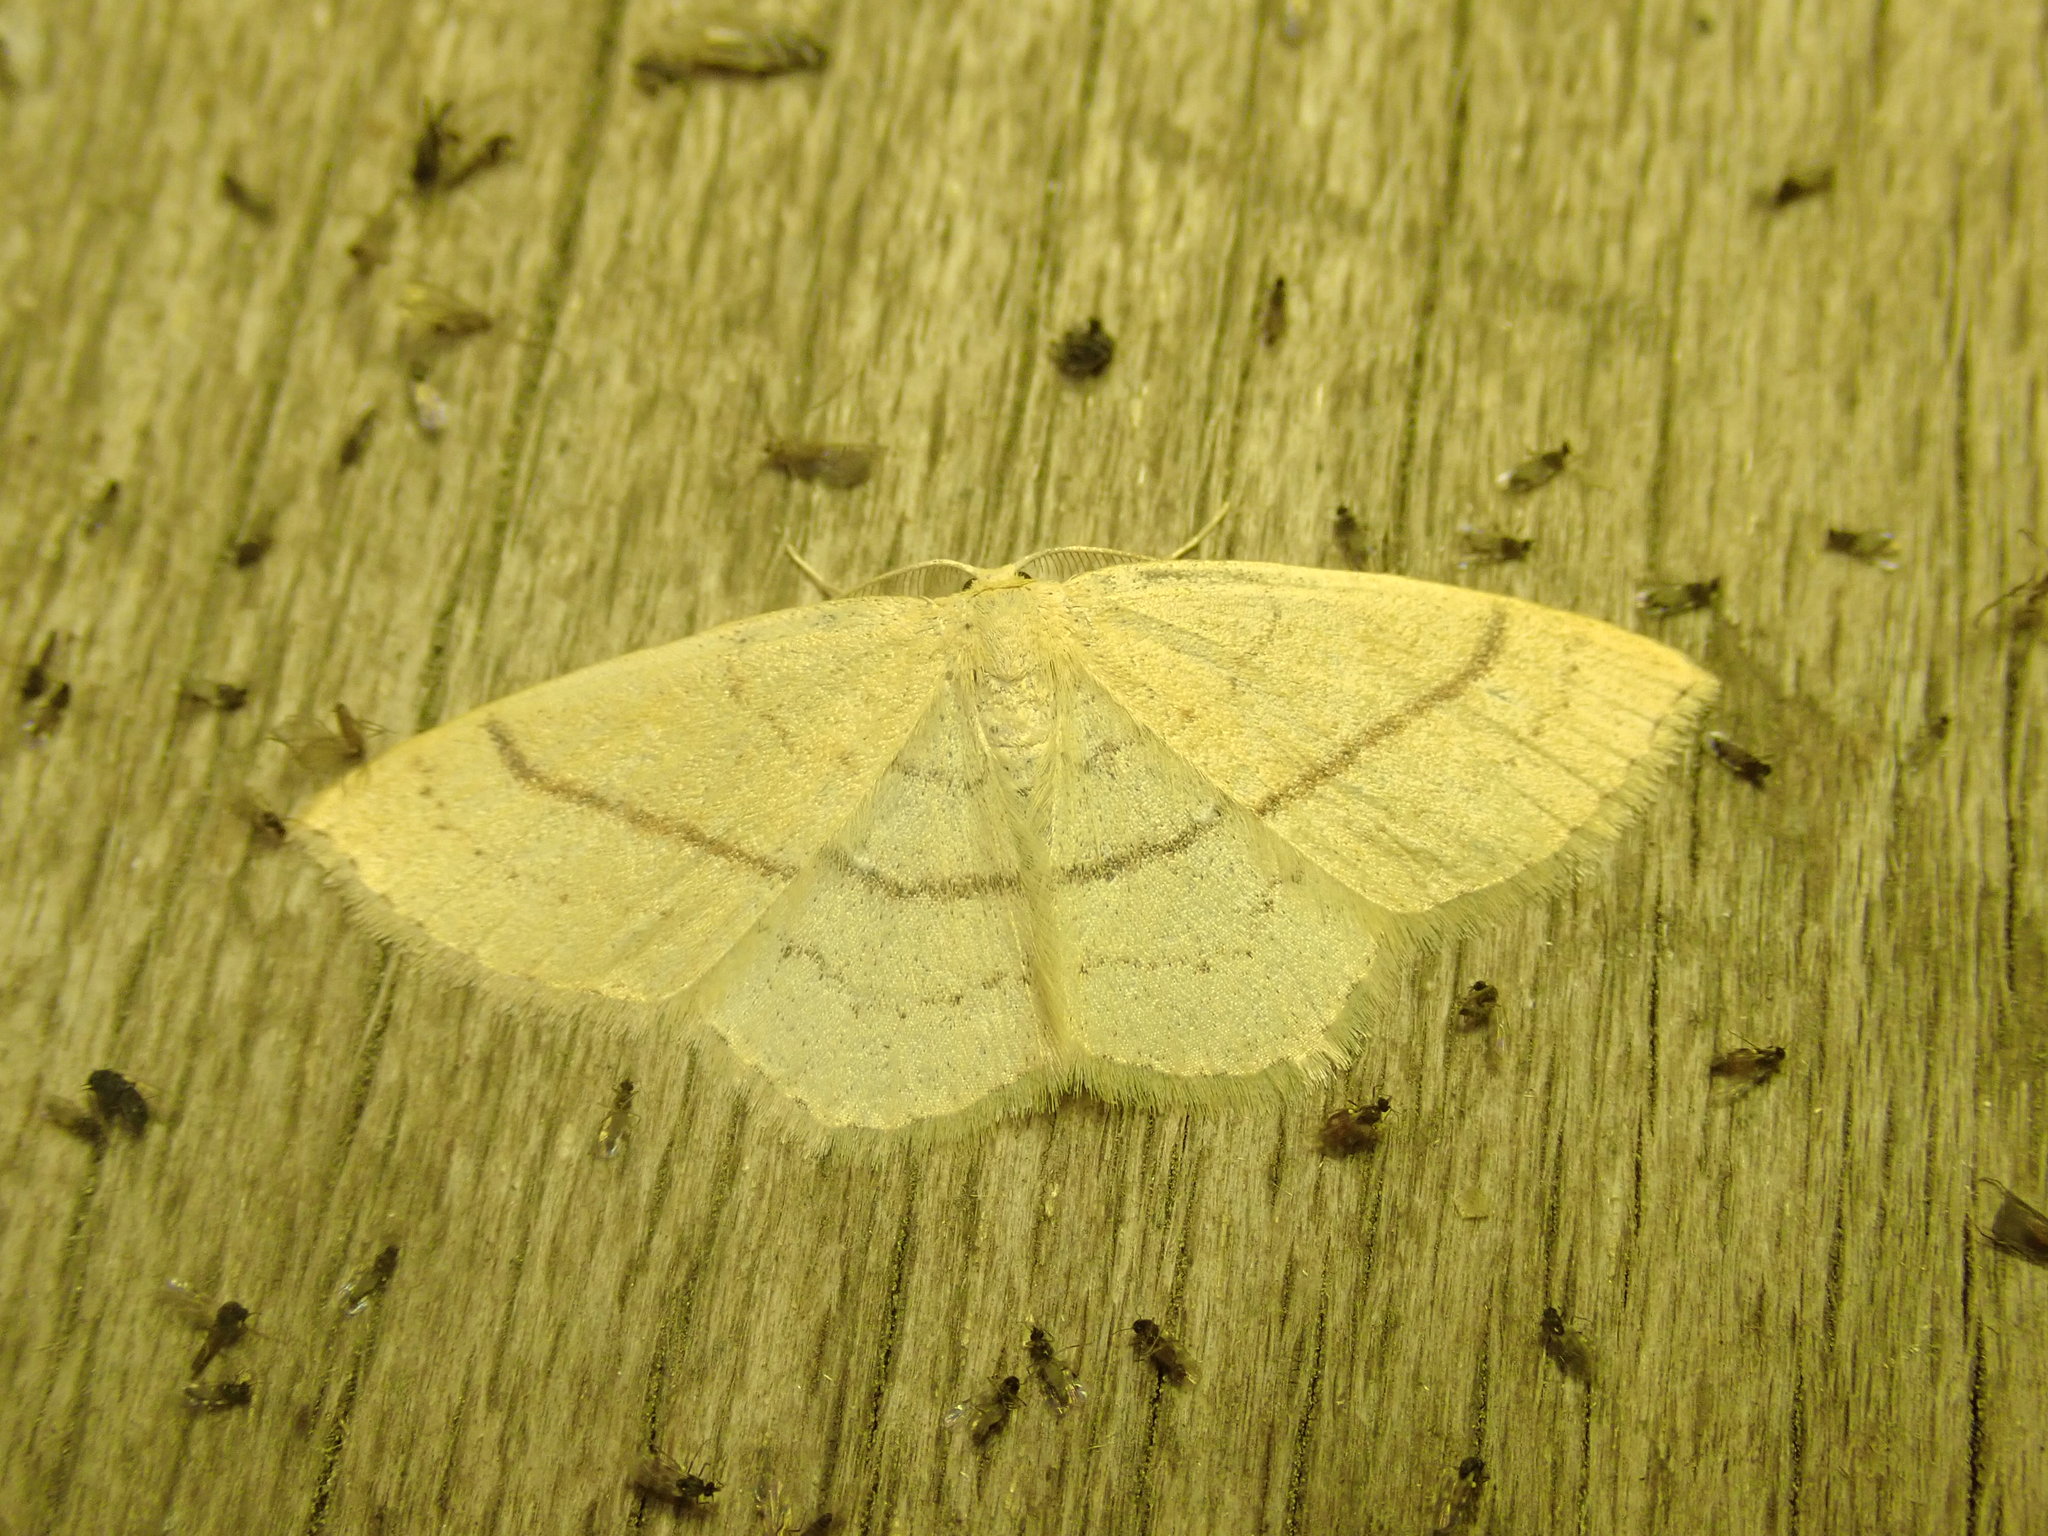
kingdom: Animalia
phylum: Arthropoda
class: Insecta
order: Lepidoptera
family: Geometridae
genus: Cyclophora
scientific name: Cyclophora linearia
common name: Clay triple-lines
